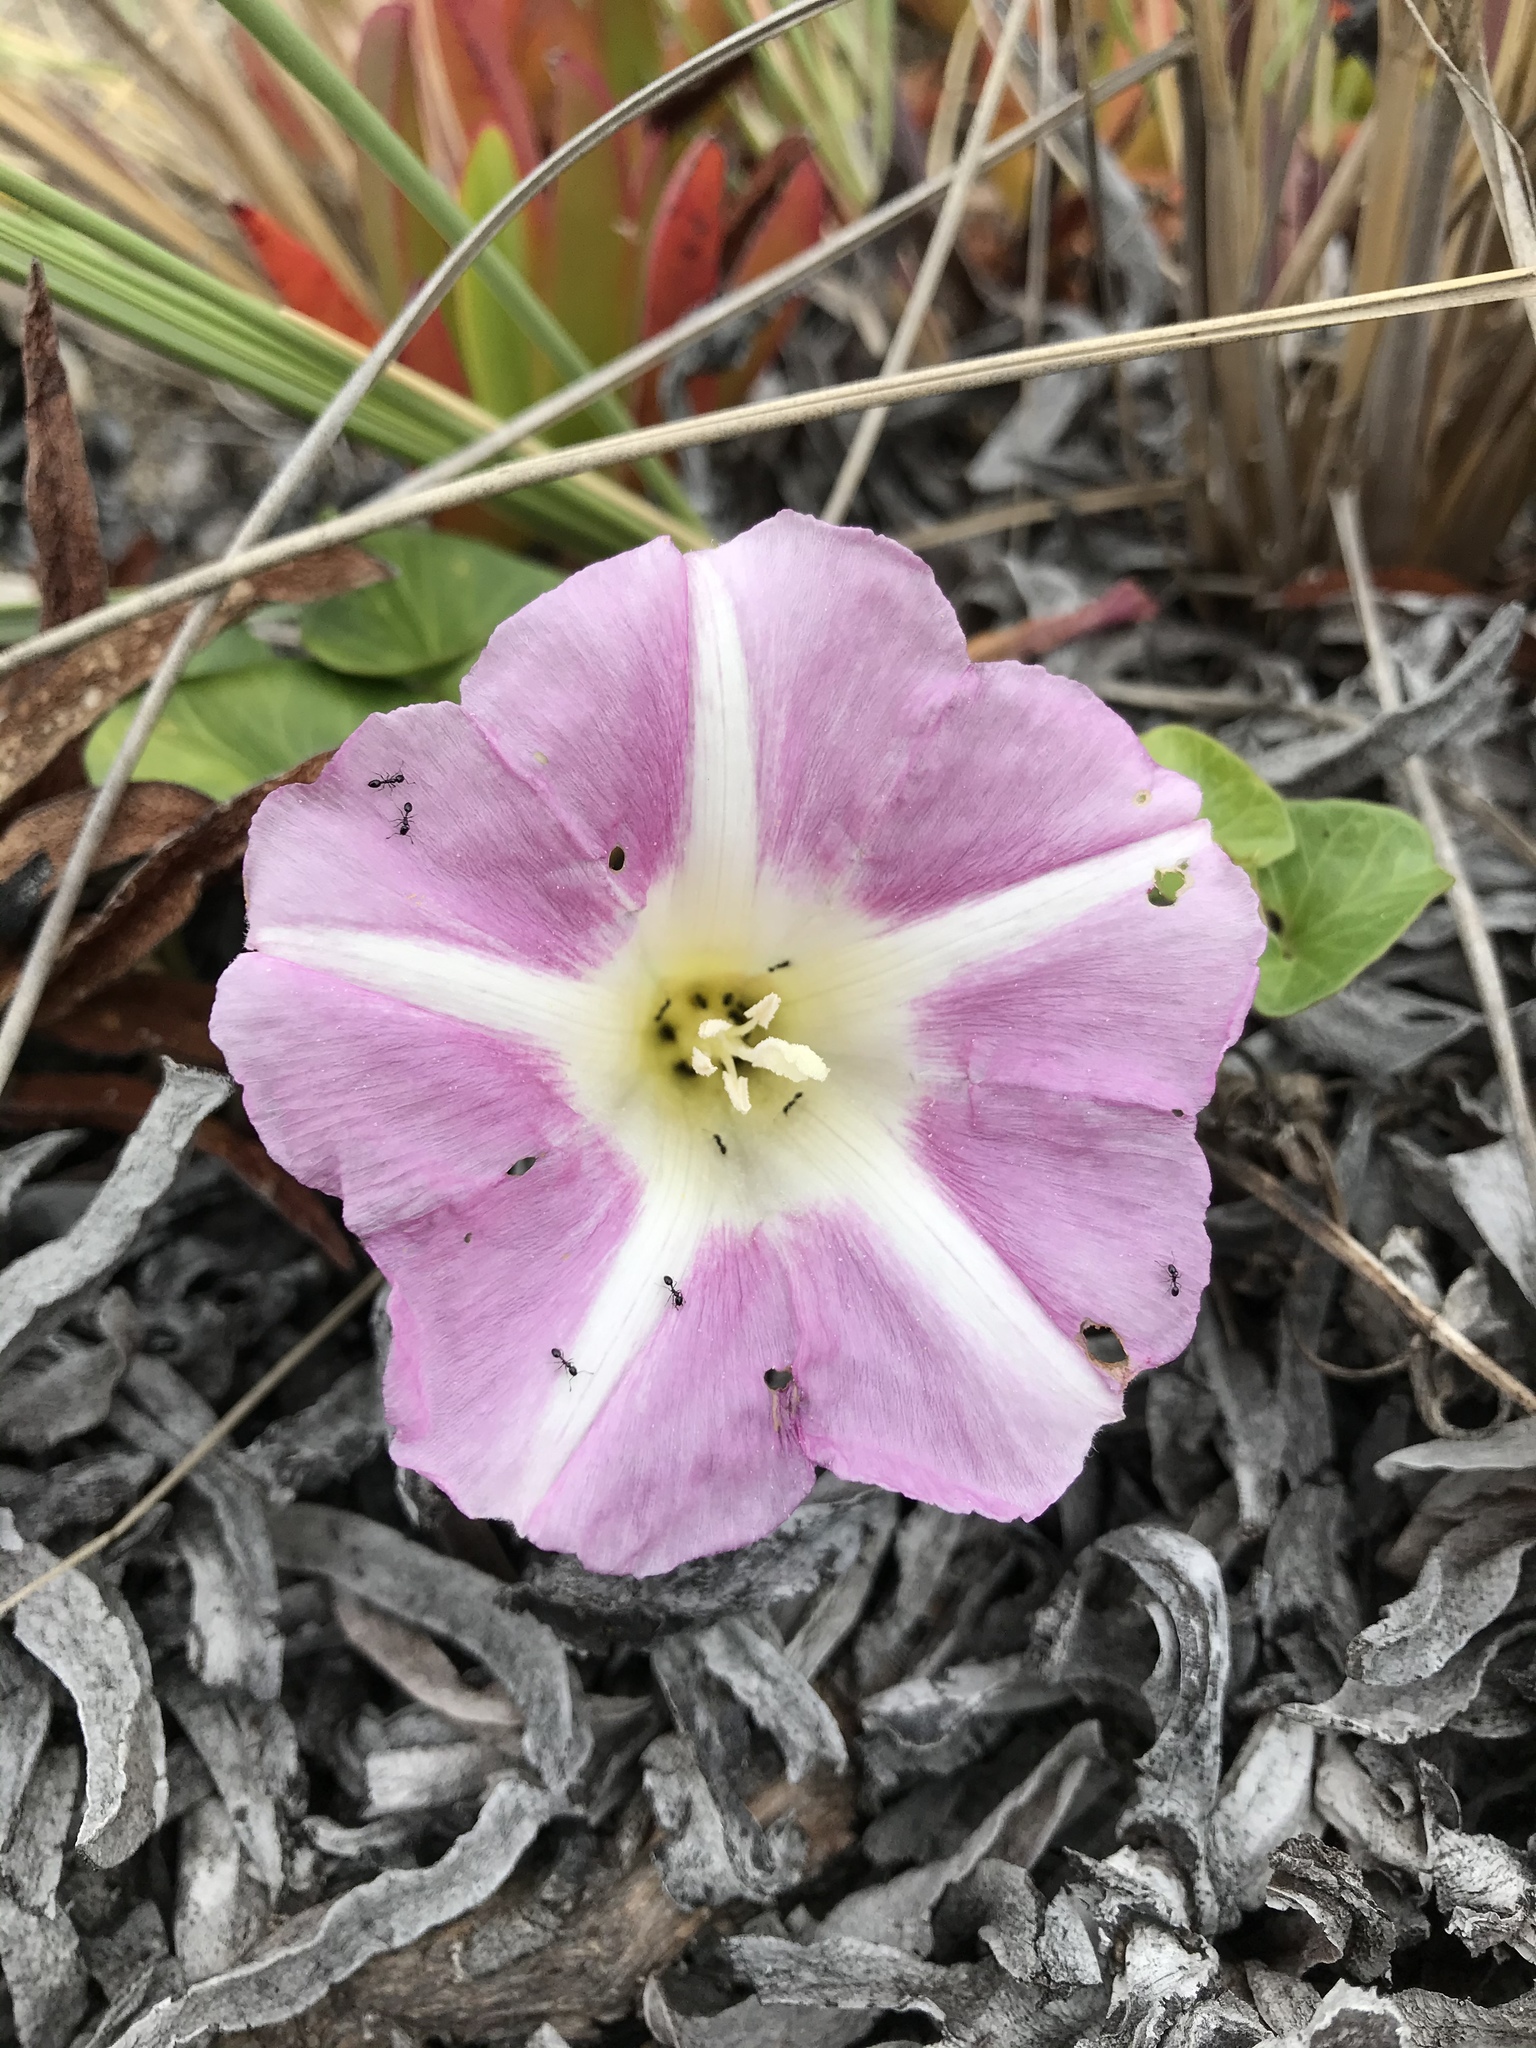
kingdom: Plantae
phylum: Tracheophyta
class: Magnoliopsida
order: Solanales
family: Convolvulaceae
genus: Calystegia
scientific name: Calystegia soldanella
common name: Sea bindweed
